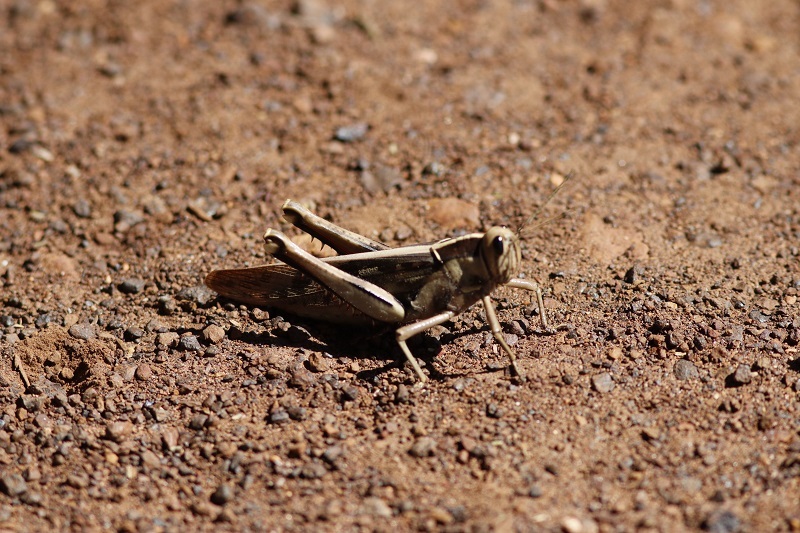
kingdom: Animalia
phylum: Arthropoda
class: Insecta
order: Orthoptera
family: Acrididae
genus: Acanthacris
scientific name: Acanthacris ruficornis
